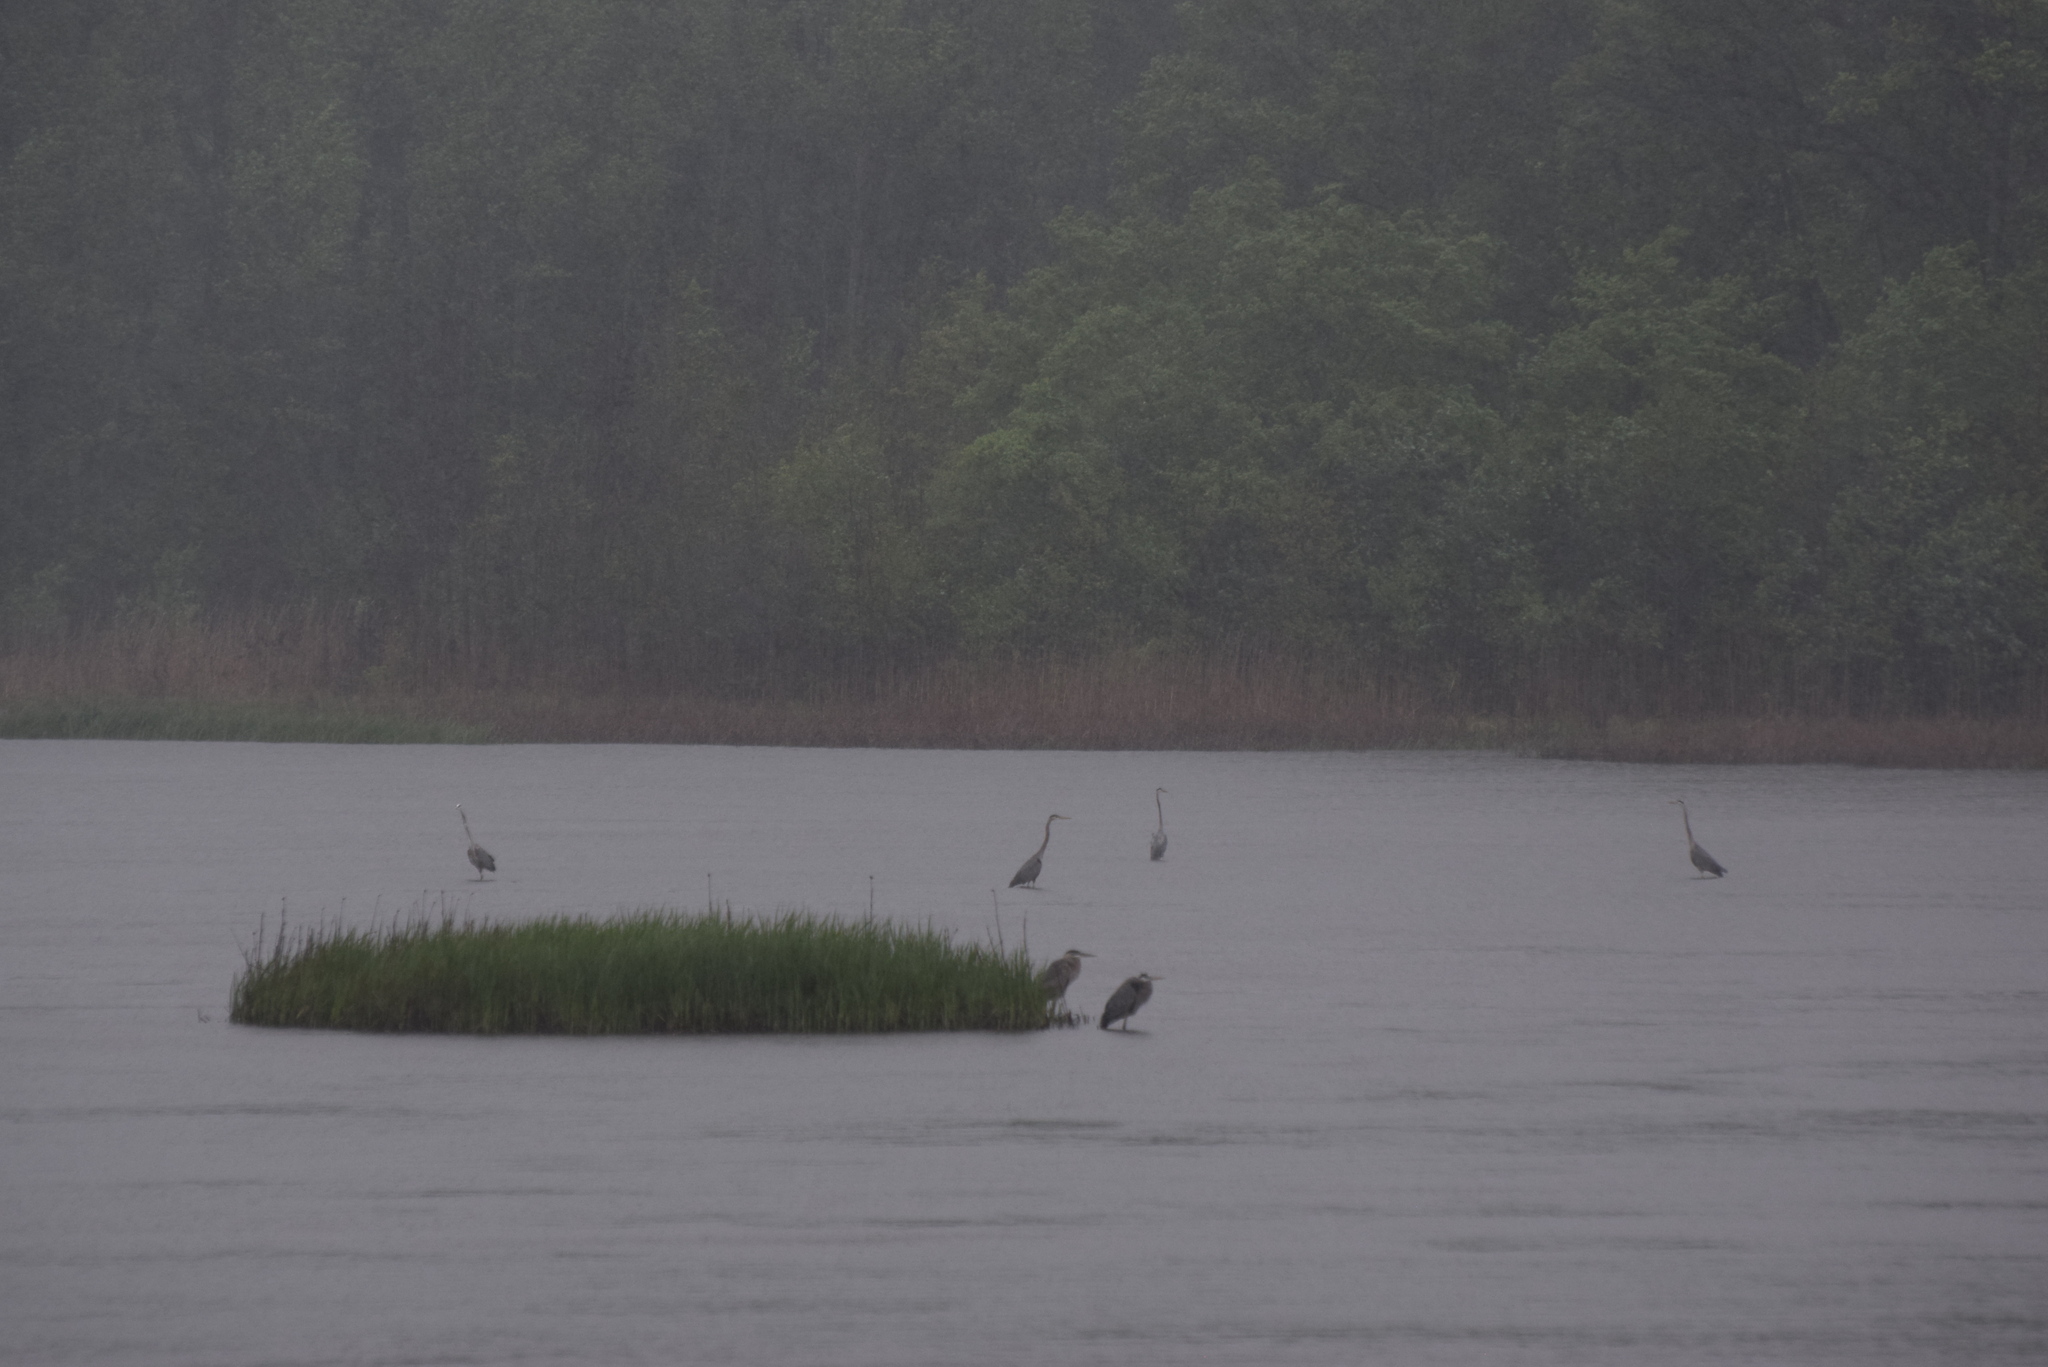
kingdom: Animalia
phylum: Chordata
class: Aves
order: Pelecaniformes
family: Ardeidae
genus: Ardea
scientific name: Ardea herodias
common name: Great blue heron
